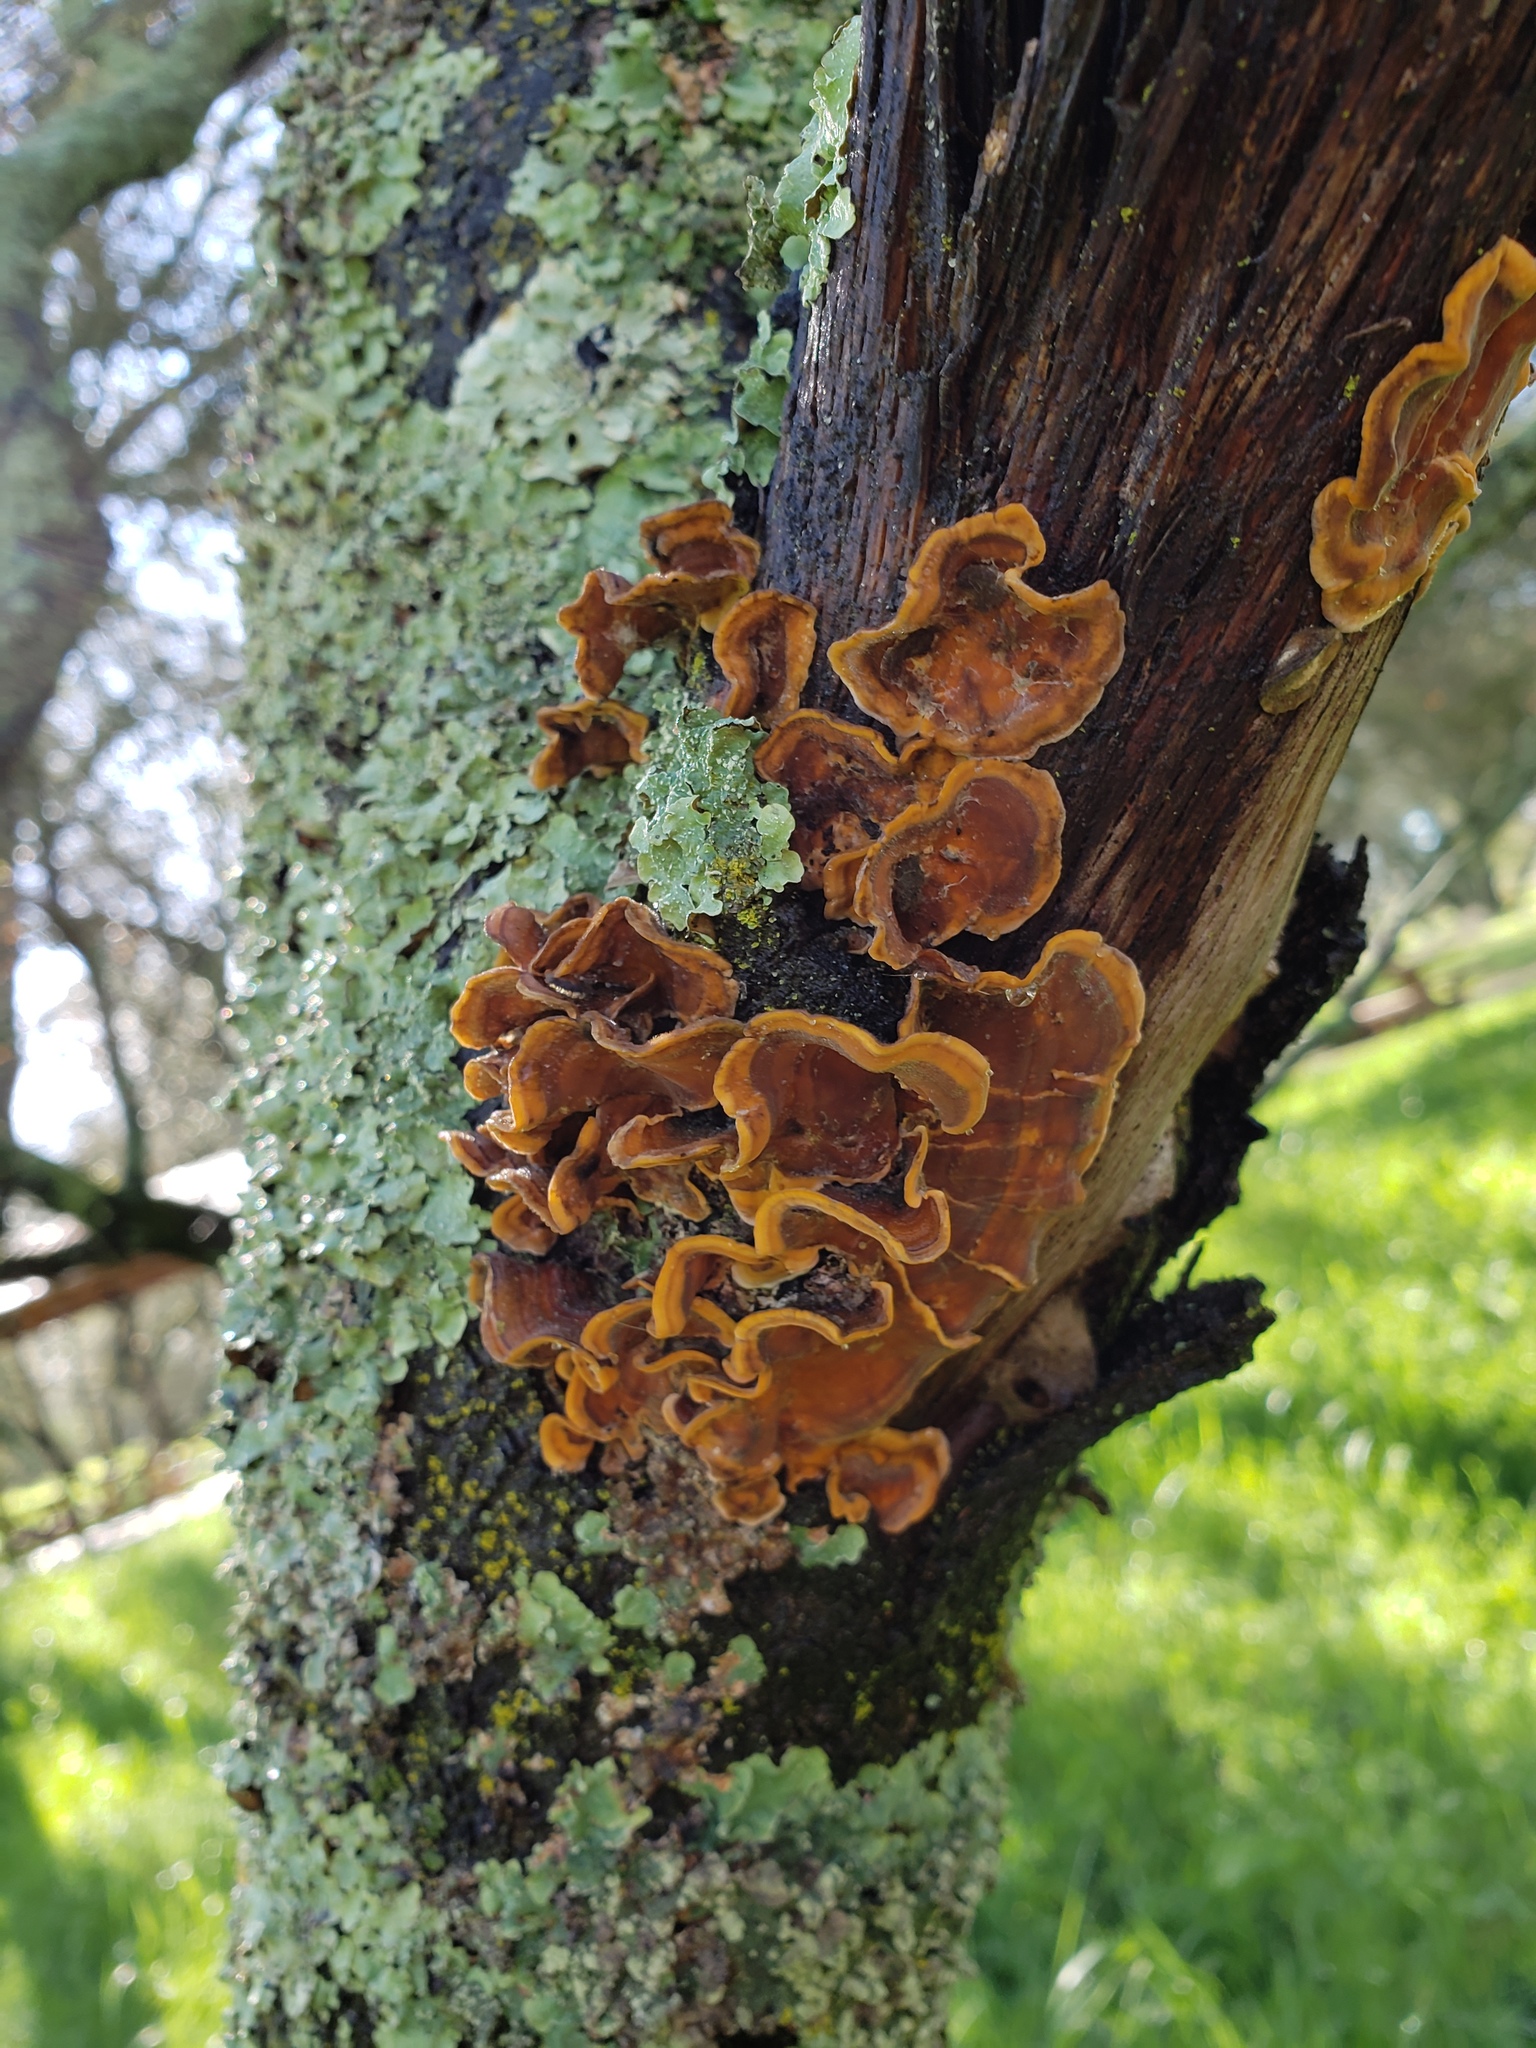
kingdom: Fungi
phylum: Basidiomycota
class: Agaricomycetes
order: Russulales
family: Stereaceae
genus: Stereum
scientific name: Stereum hirsutum
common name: Hairy curtain crust
